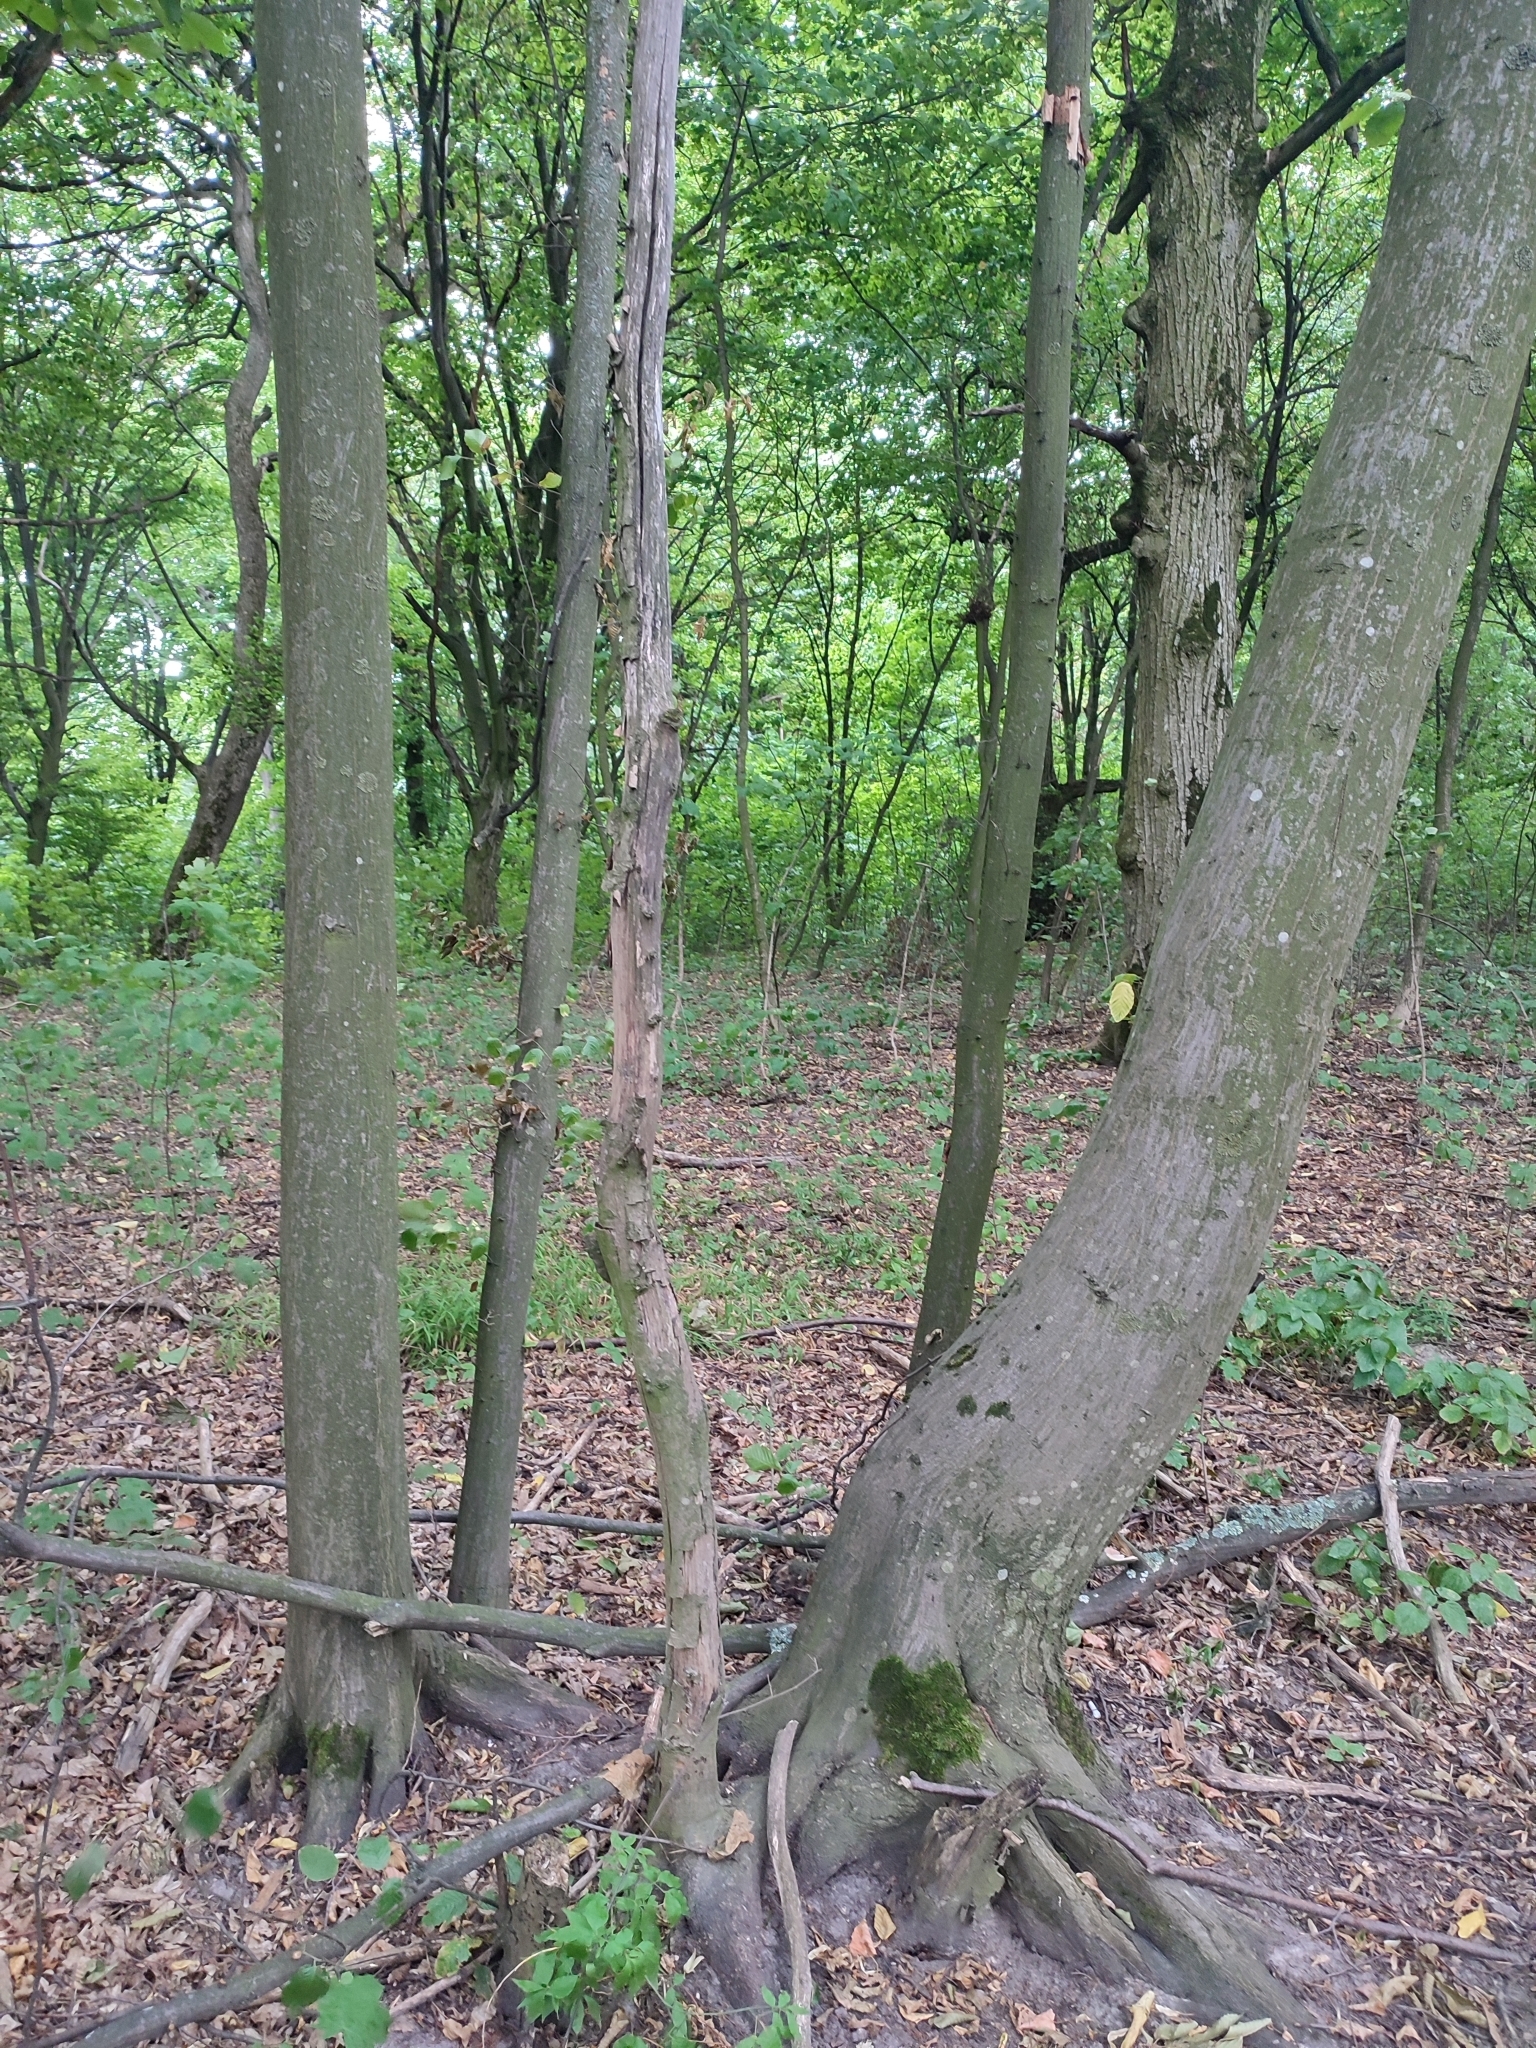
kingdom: Plantae
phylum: Tracheophyta
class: Magnoliopsida
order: Fagales
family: Betulaceae
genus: Carpinus
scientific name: Carpinus betulus
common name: Hornbeam
